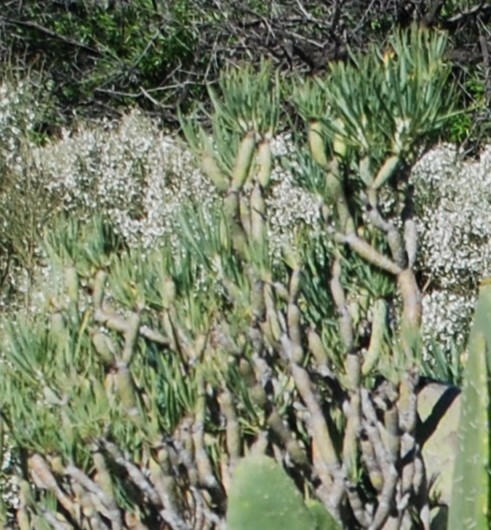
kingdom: Plantae
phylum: Tracheophyta
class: Magnoliopsida
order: Asterales
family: Asteraceae
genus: Kleinia
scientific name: Kleinia neriifolia
